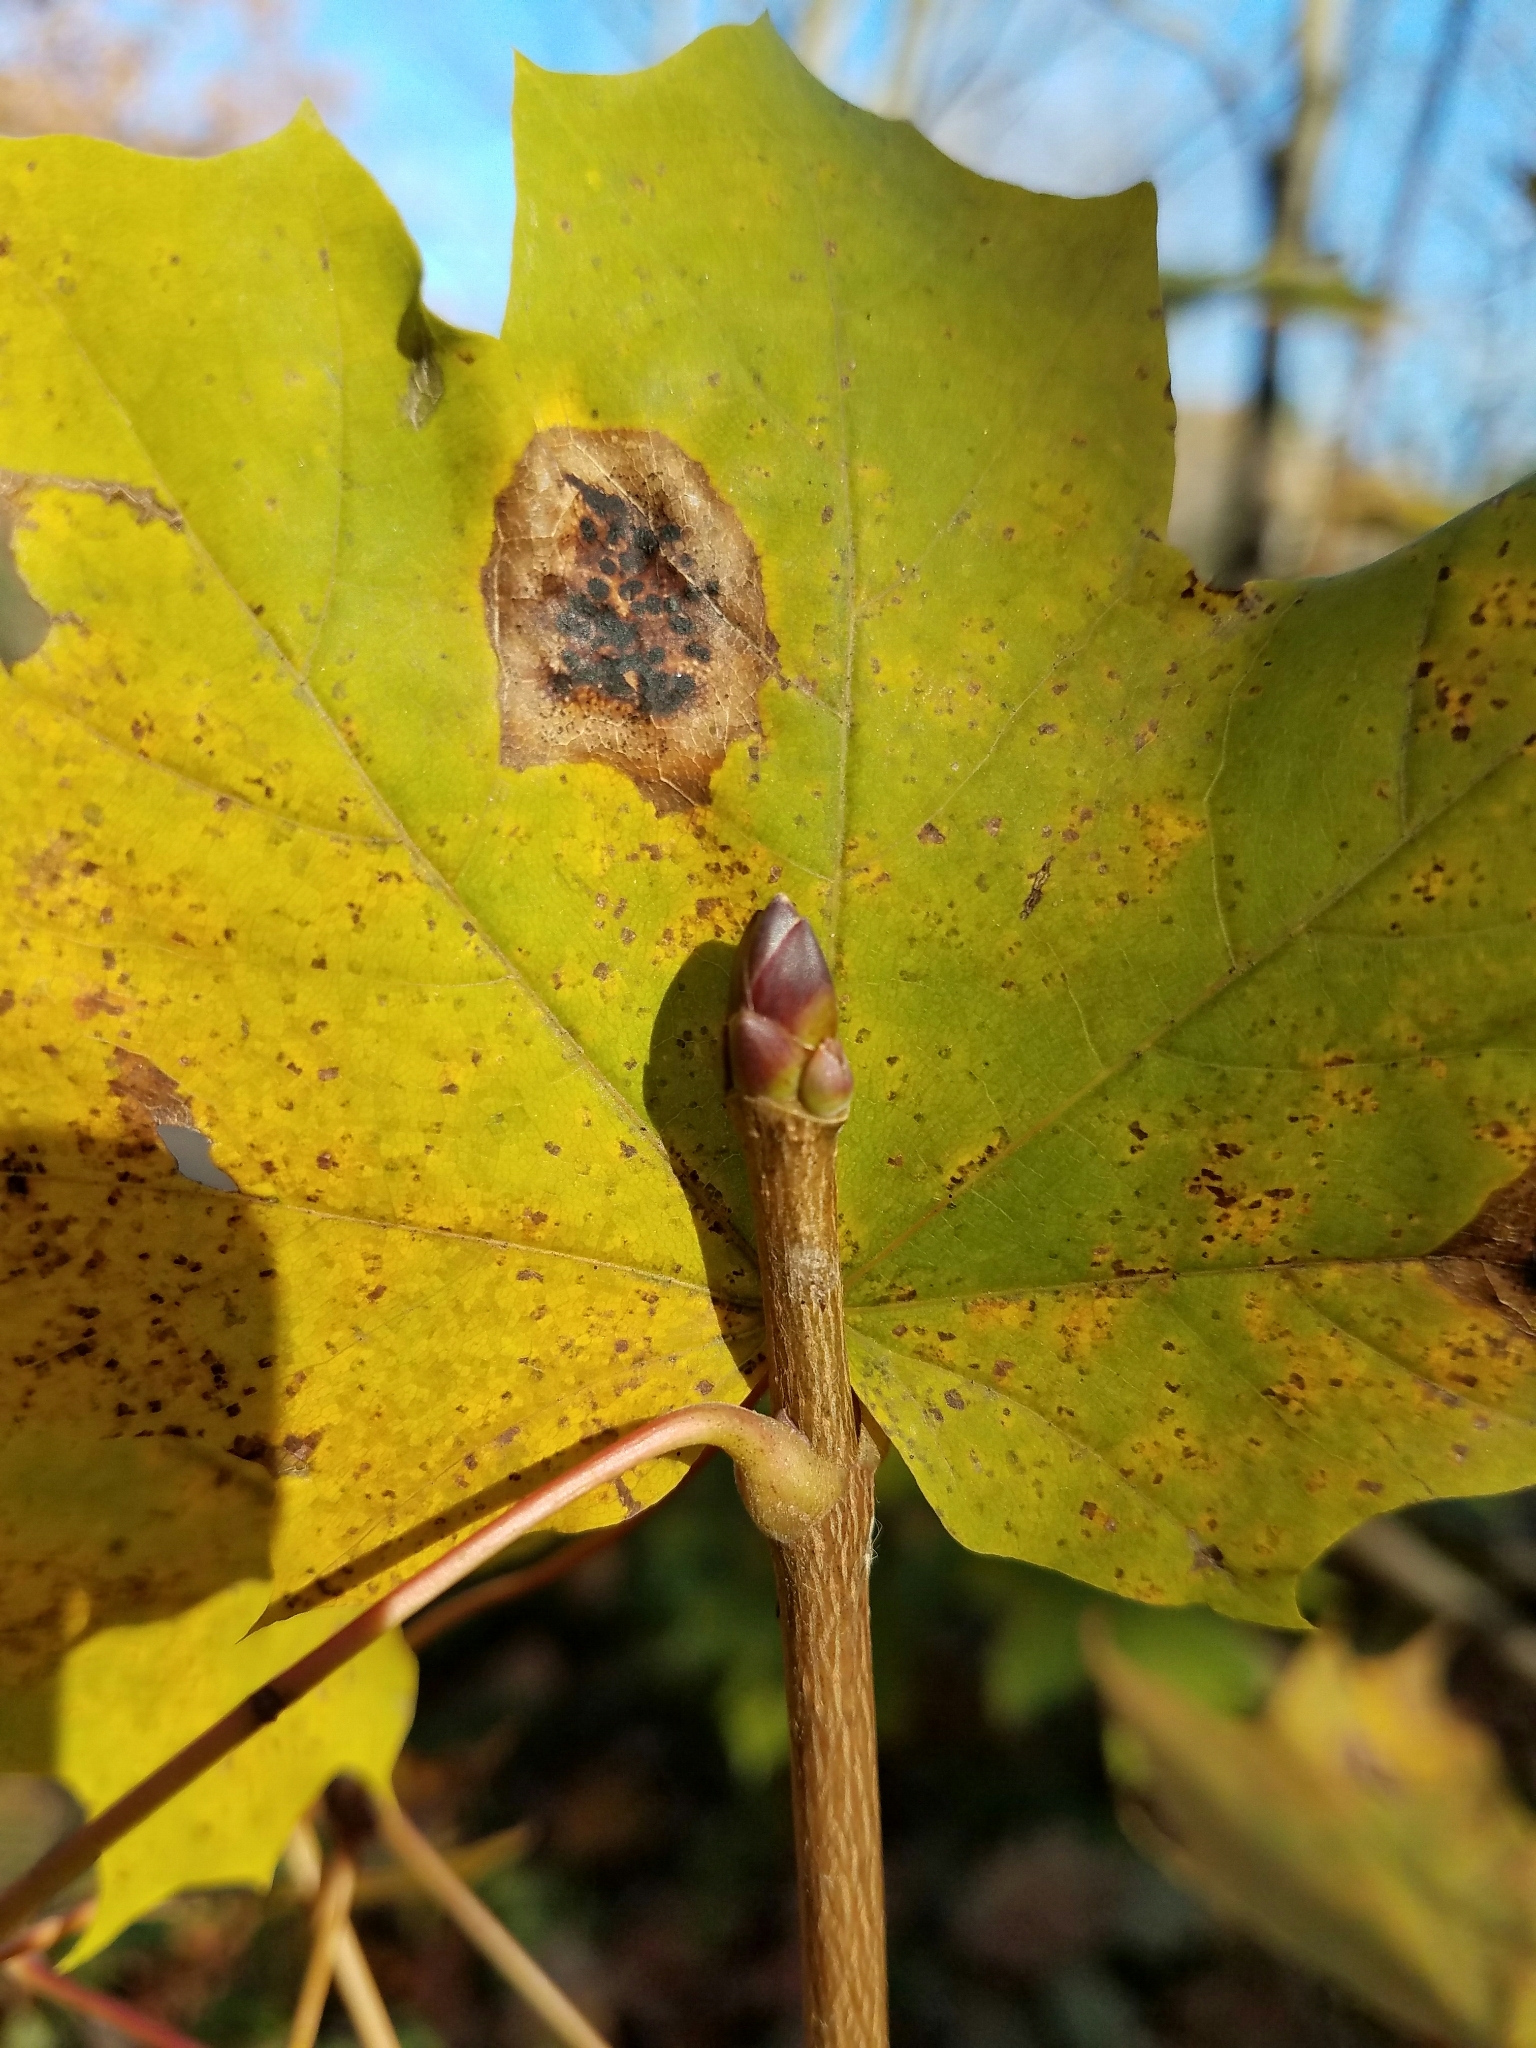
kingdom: Plantae
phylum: Tracheophyta
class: Magnoliopsida
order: Sapindales
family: Sapindaceae
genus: Acer
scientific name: Acer platanoides
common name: Norway maple
